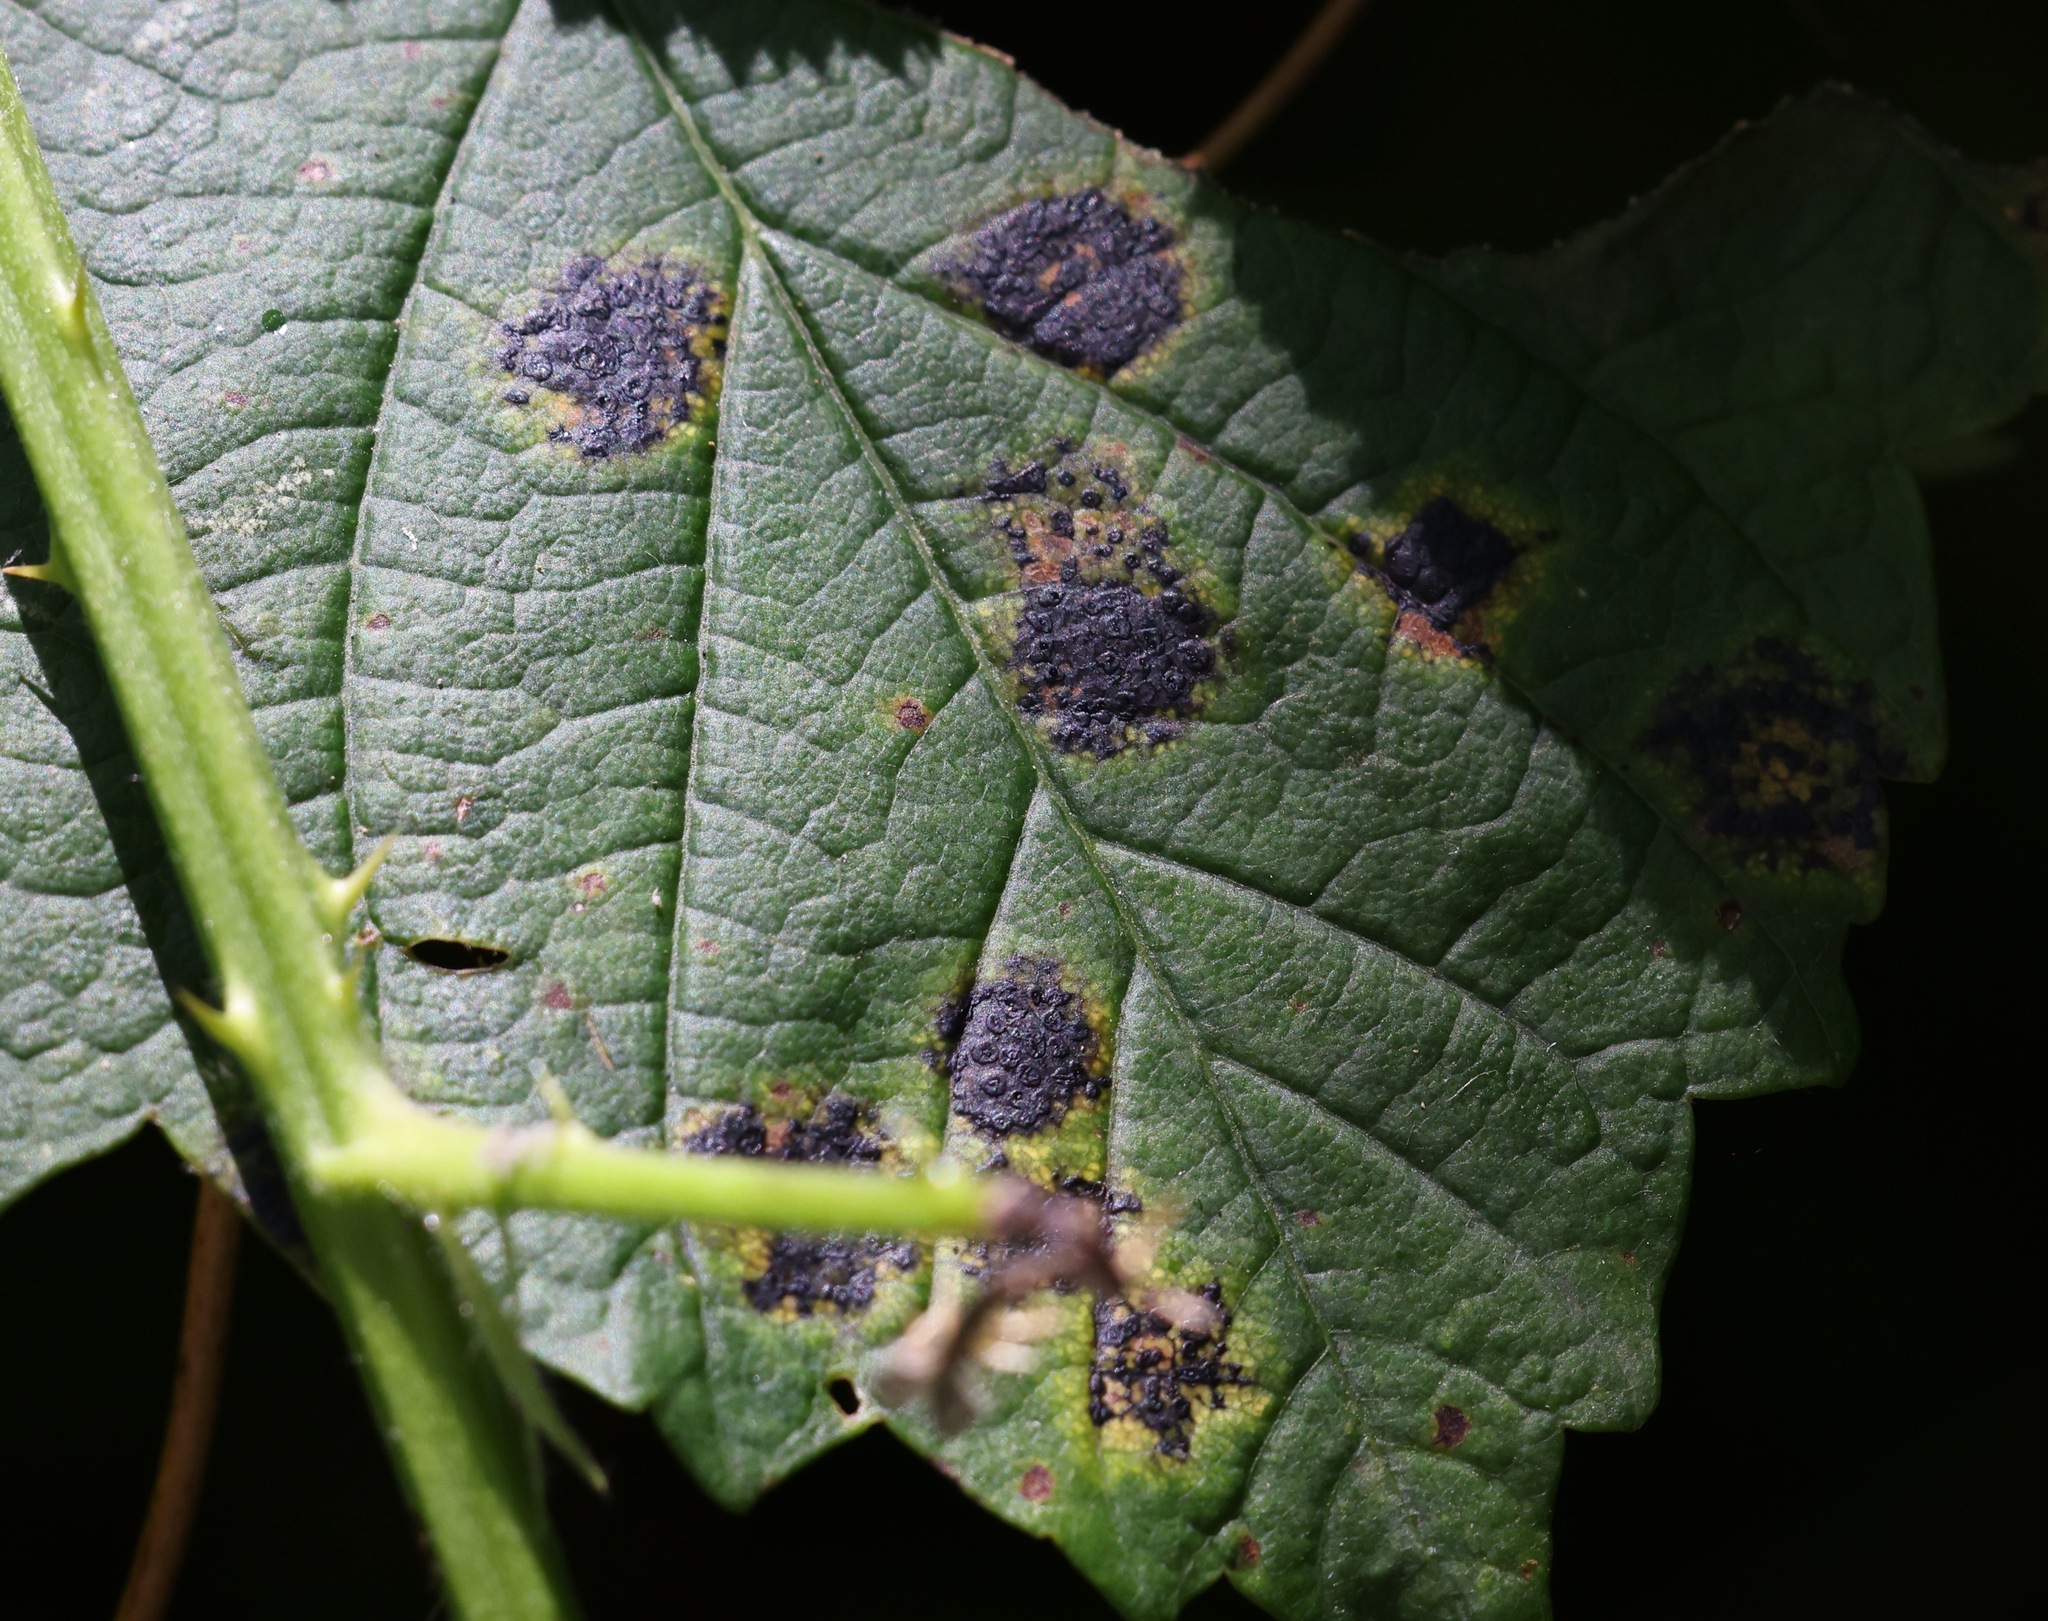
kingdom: Fungi
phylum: Ascomycota
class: Leotiomycetes
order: Rhytismatales
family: Rhytismataceae
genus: Rhytisma
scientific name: Rhytisma acerinum
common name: European tar spot
